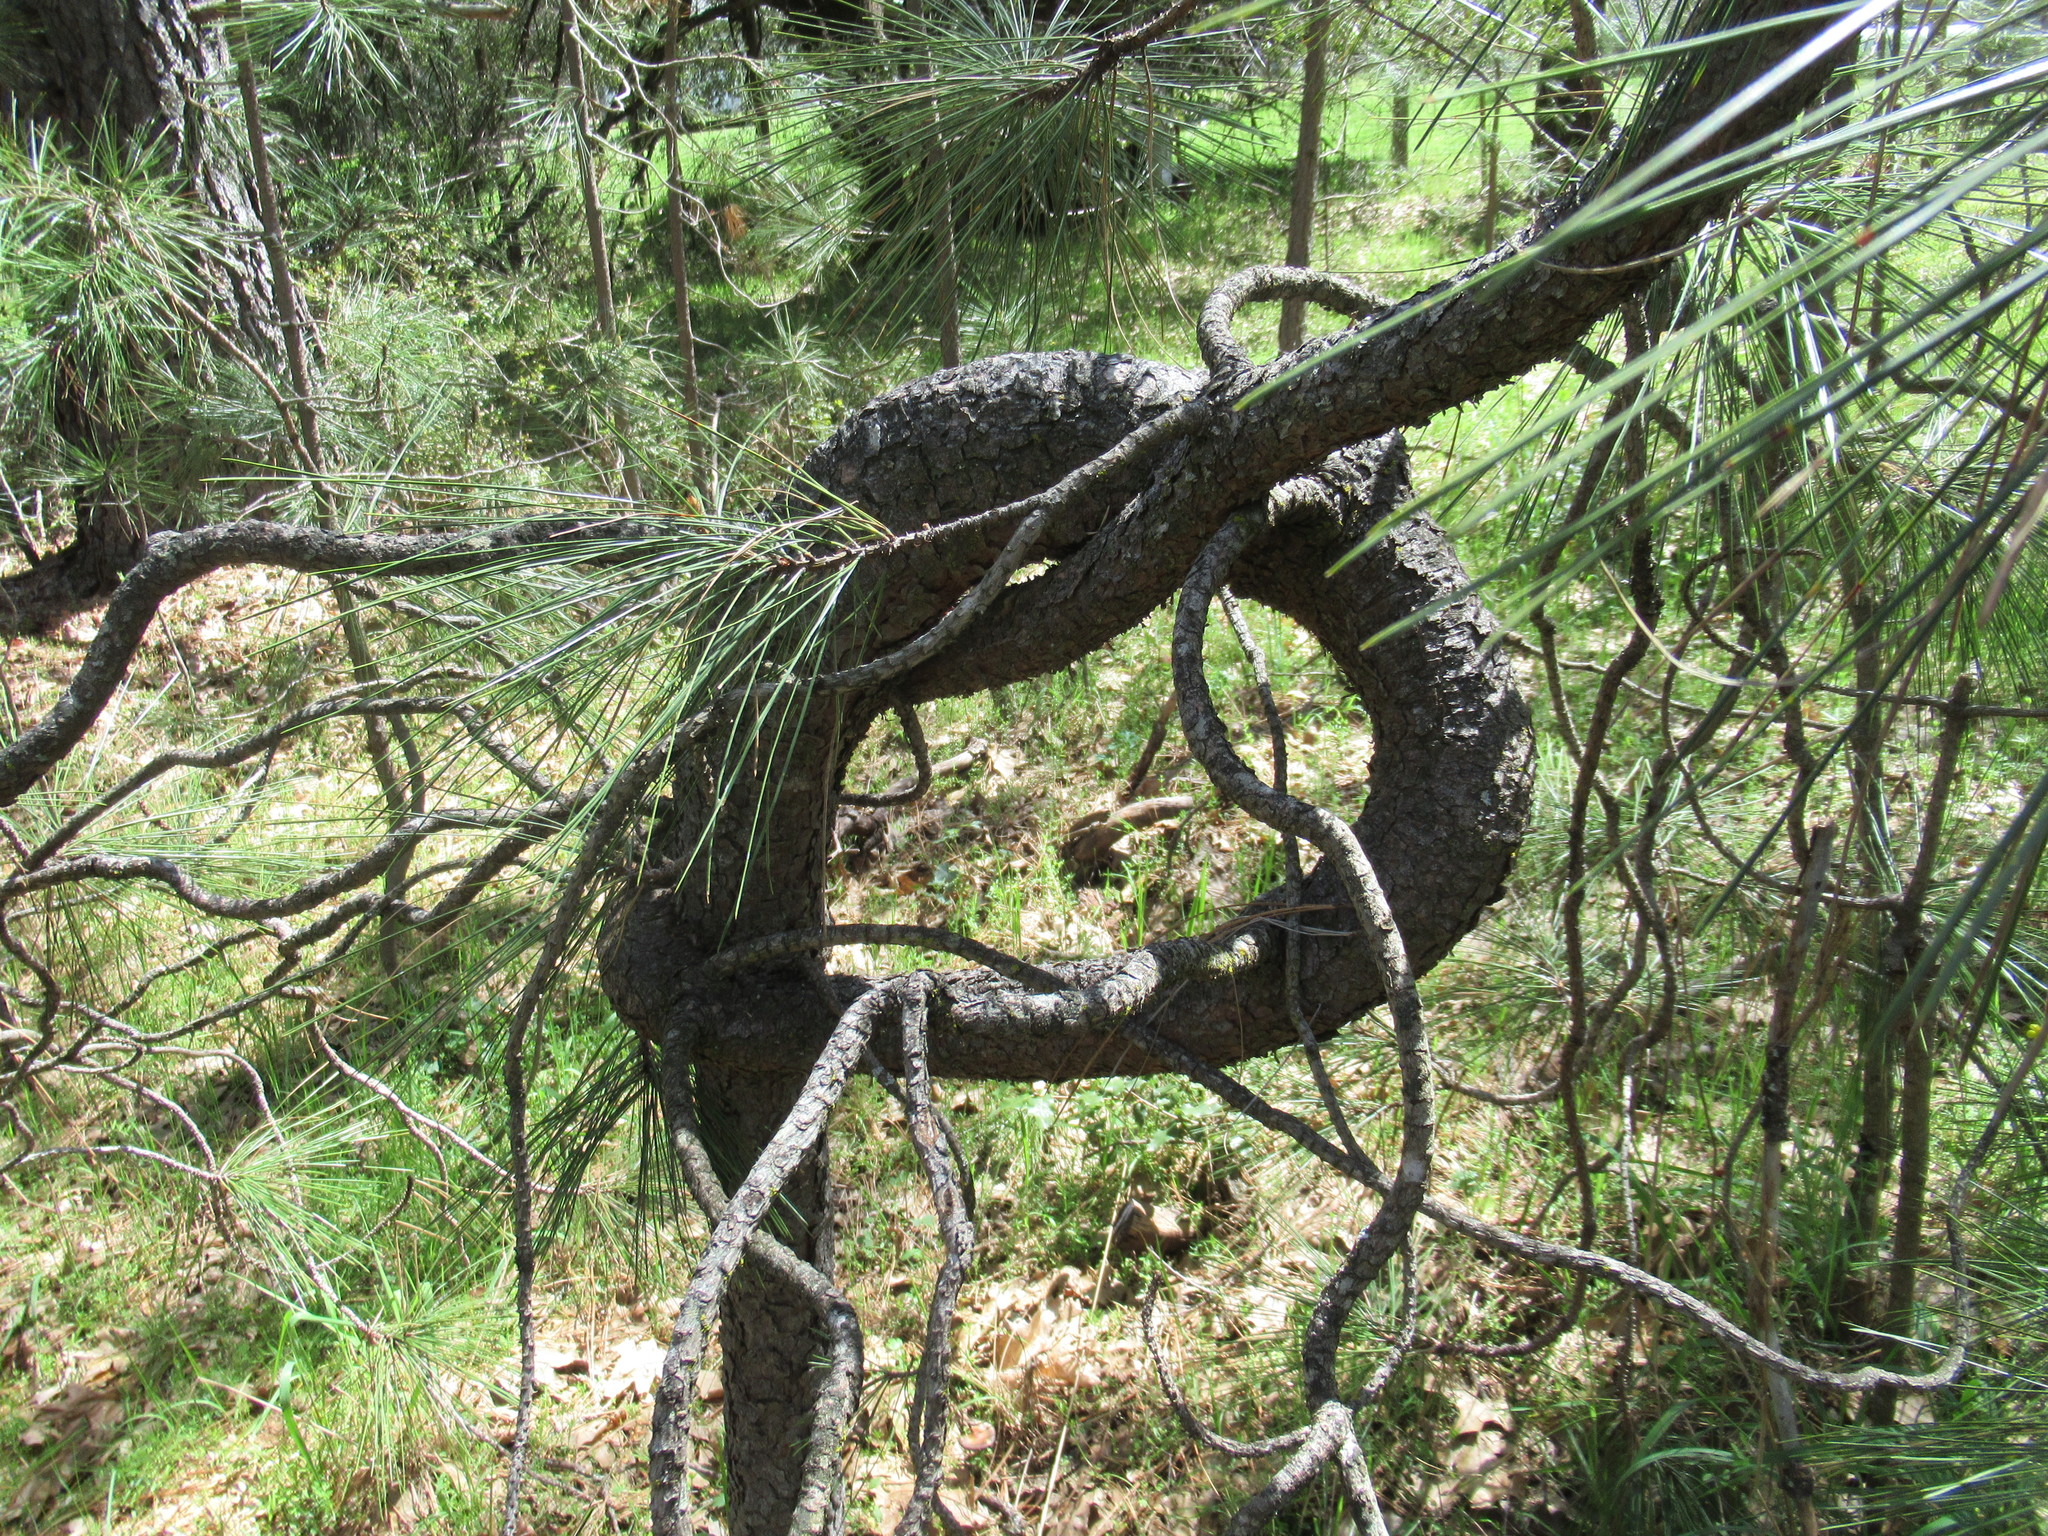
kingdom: Plantae
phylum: Tracheophyta
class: Pinopsida
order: Pinales
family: Pinaceae
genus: Pinus
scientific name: Pinus ponderosa
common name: Western yellow-pine
